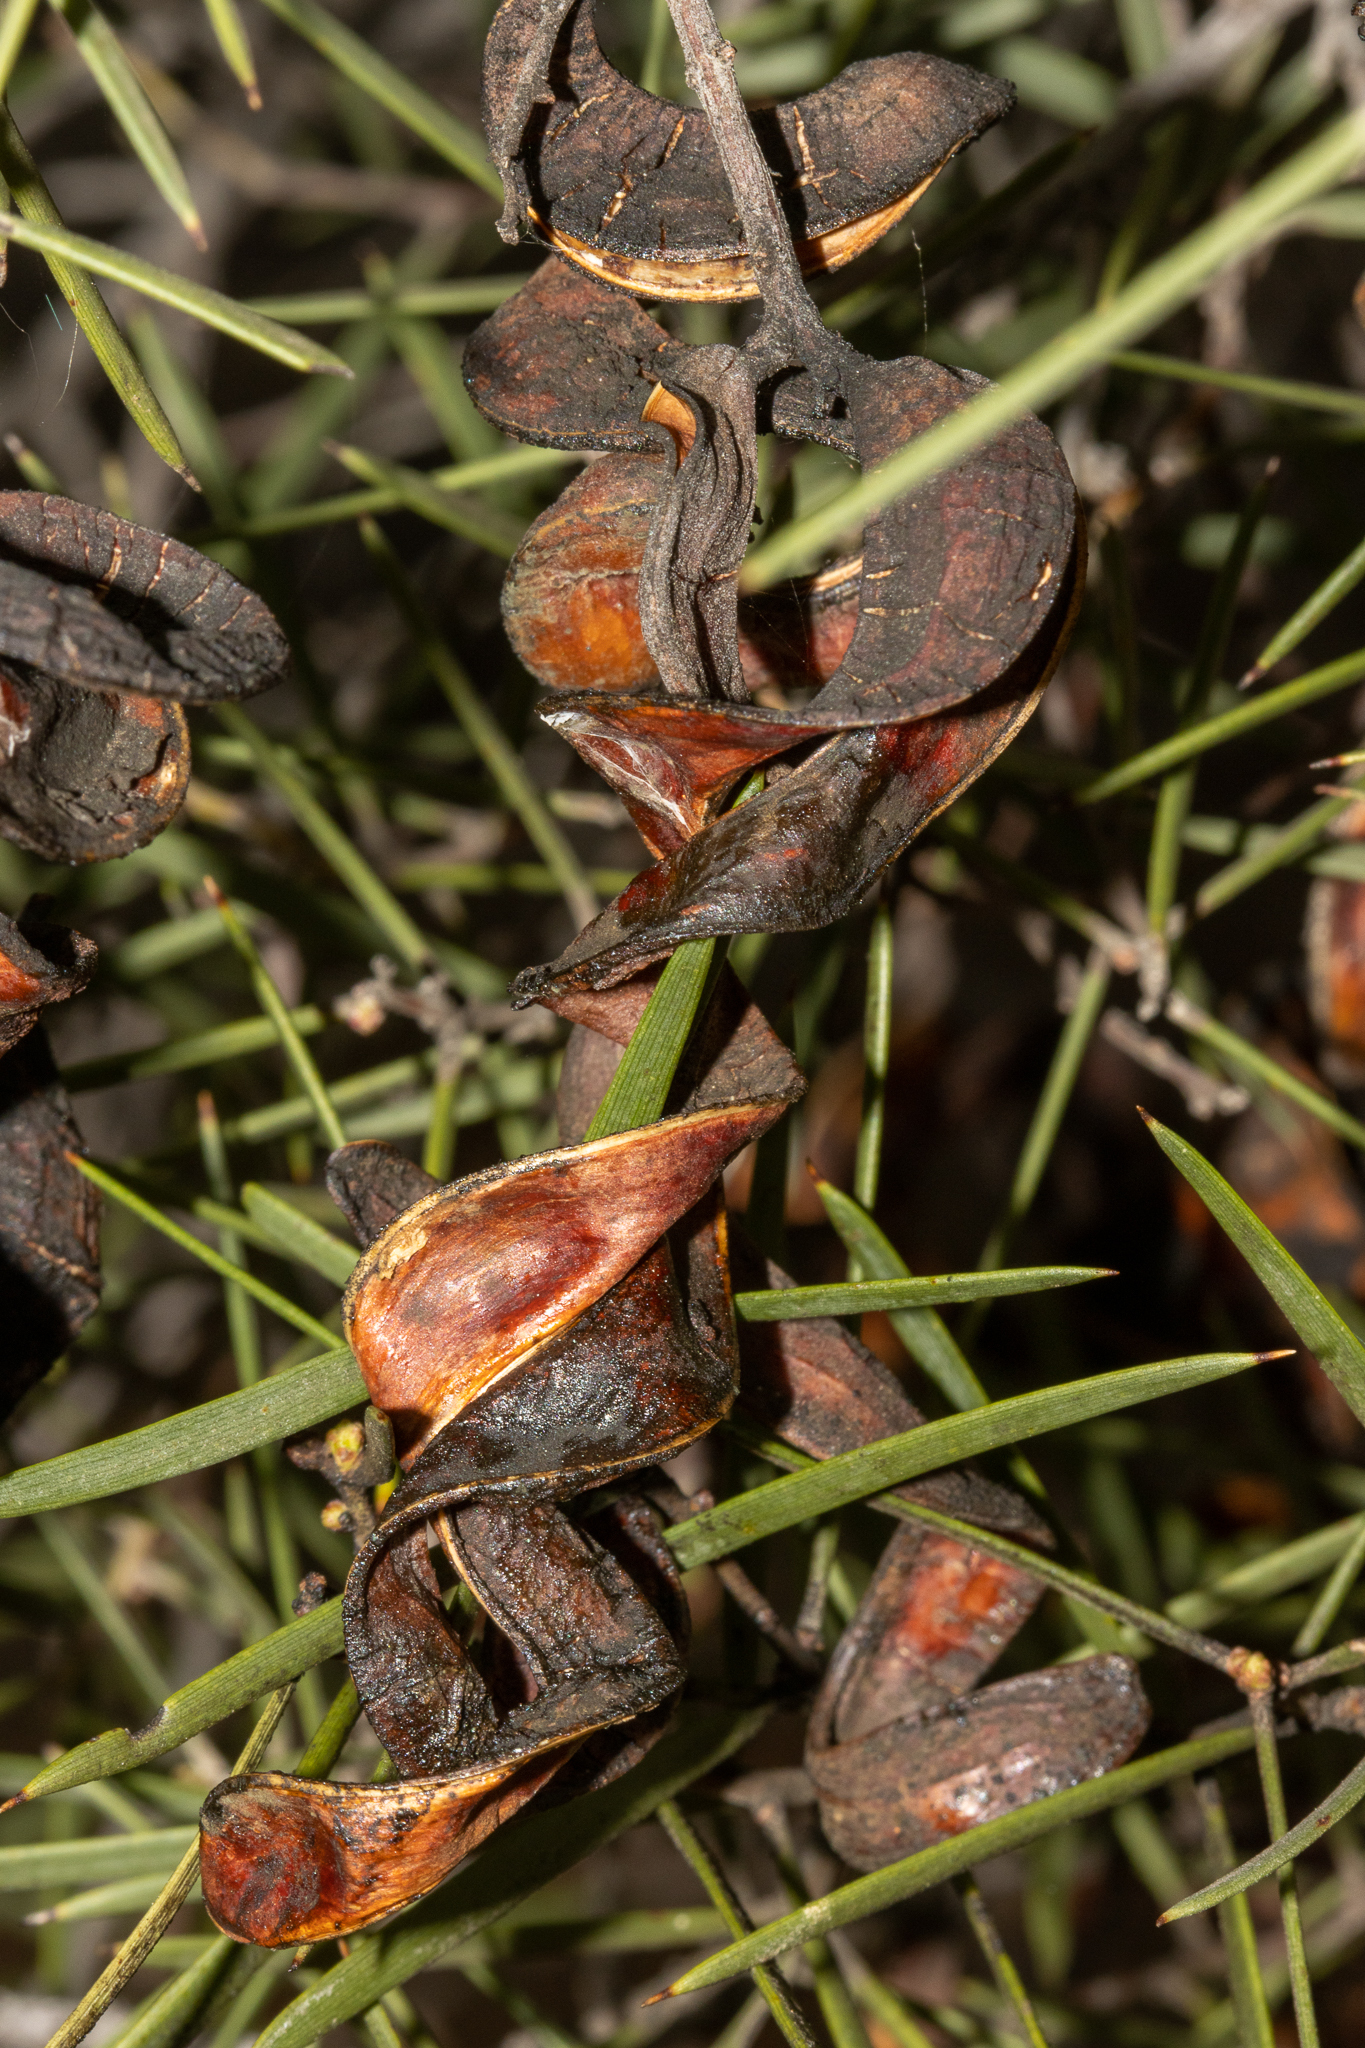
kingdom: Plantae
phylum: Tracheophyta
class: Magnoliopsida
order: Fabales
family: Fabaceae
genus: Acacia
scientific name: Acacia oswaldii
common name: Umbrella wattle
